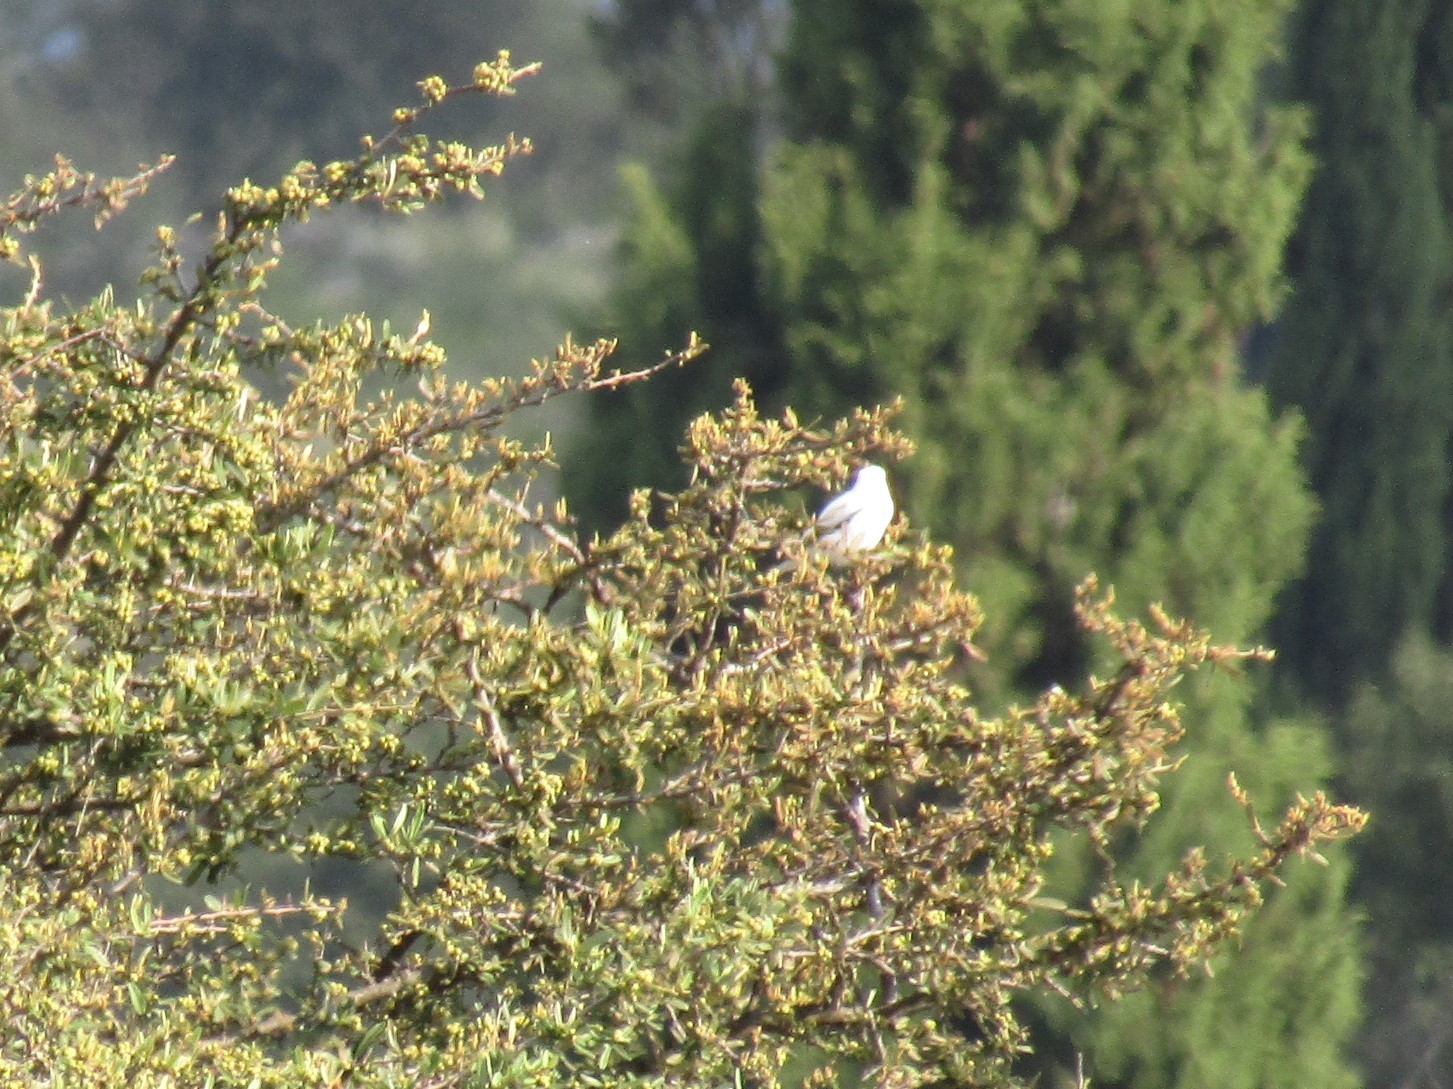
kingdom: Animalia
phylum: Chordata
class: Aves
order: Passeriformes
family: Tyrannidae
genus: Xolmis
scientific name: Xolmis irupero
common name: White monjita
